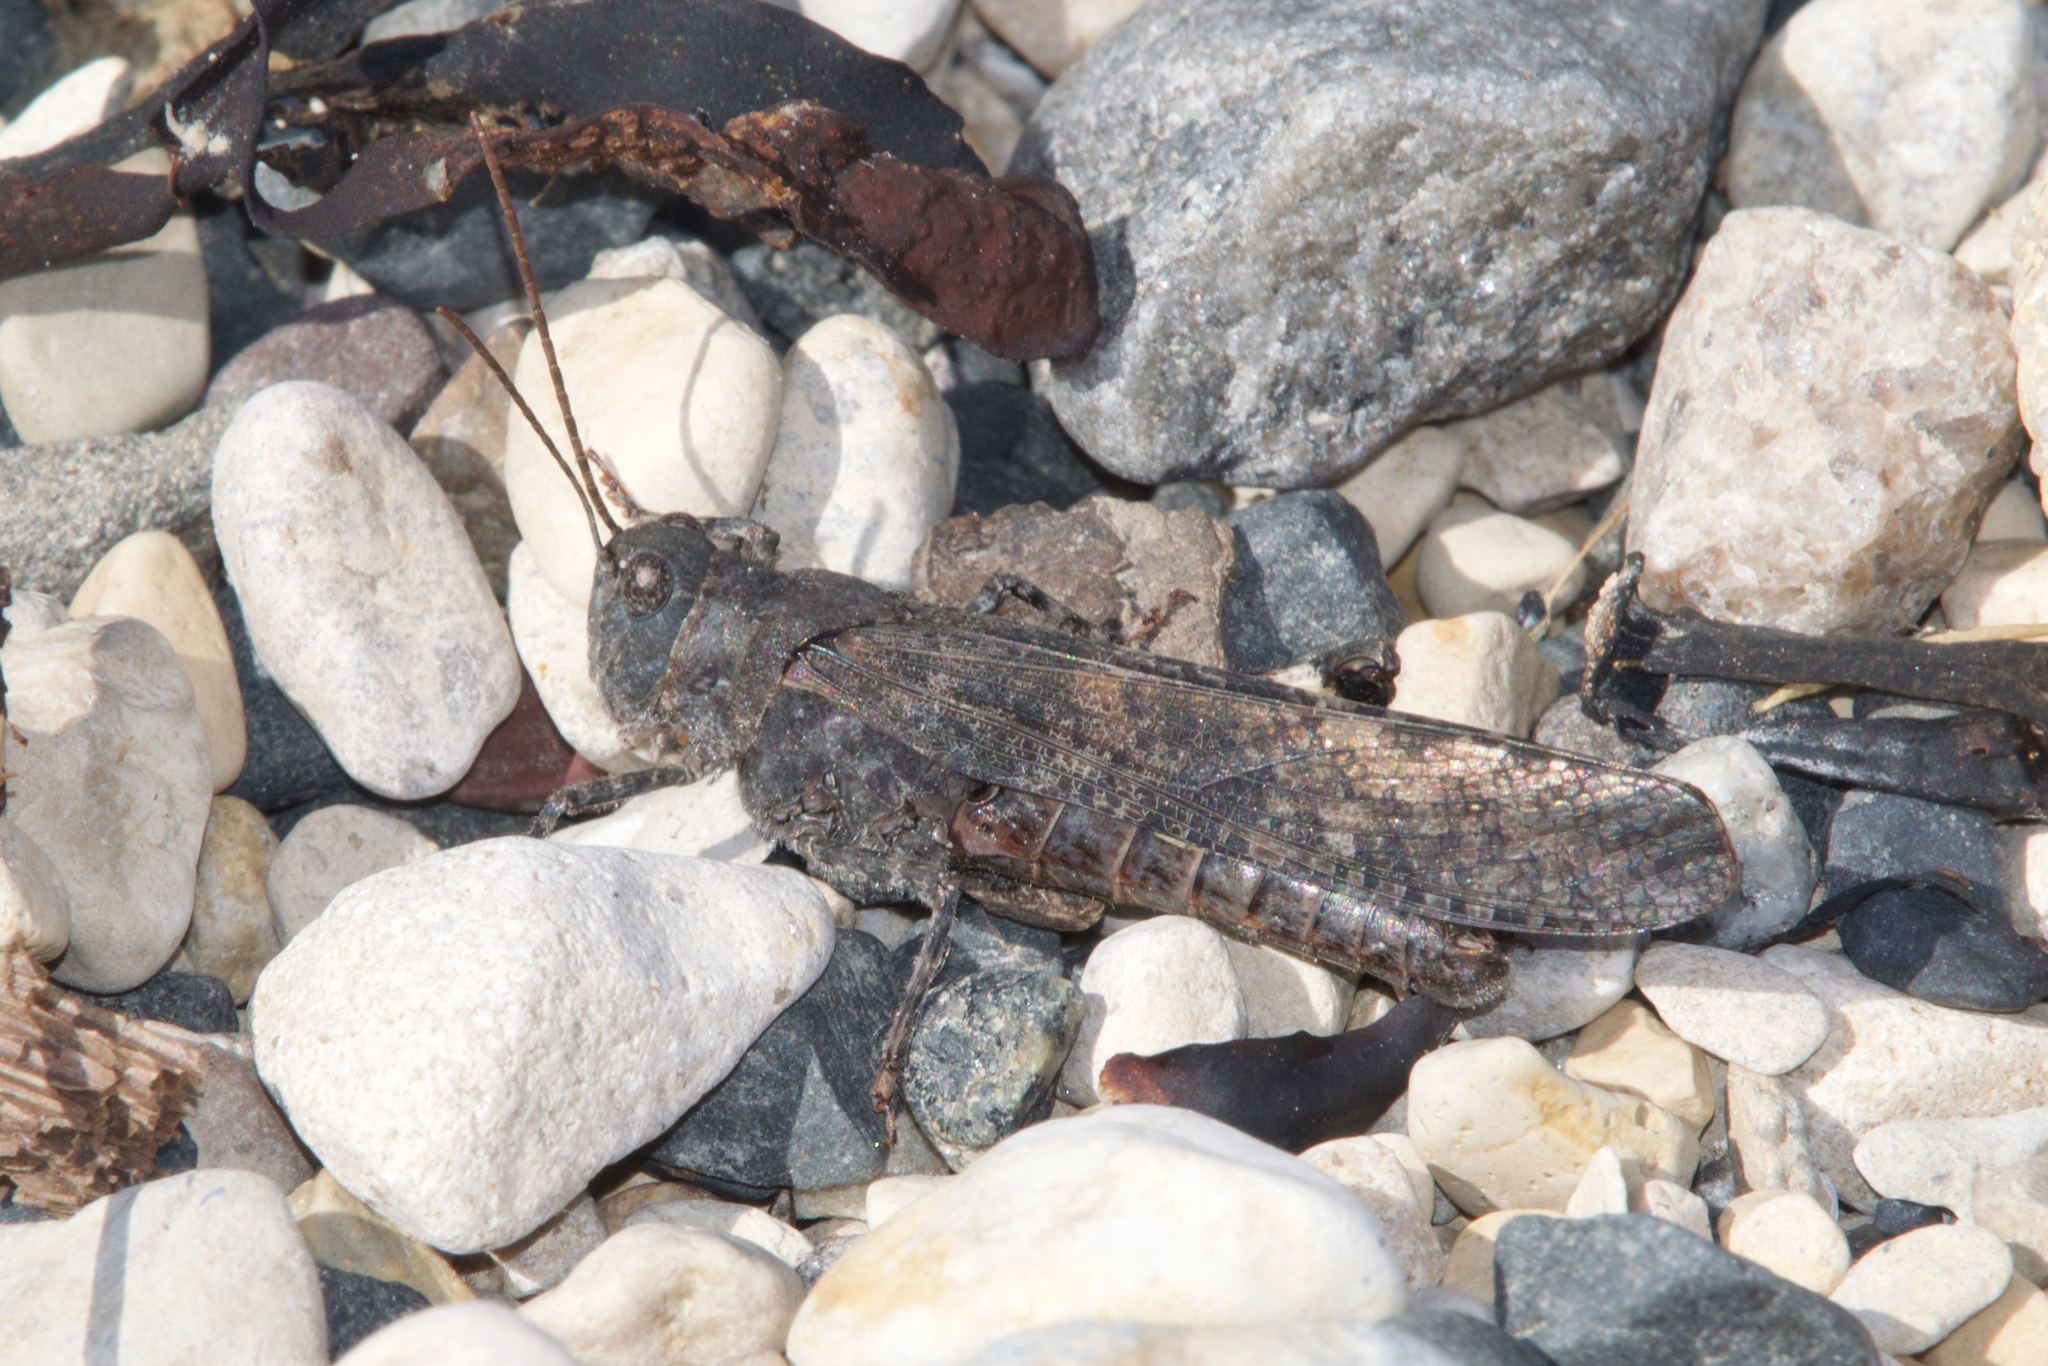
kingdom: Animalia
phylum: Arthropoda
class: Insecta
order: Orthoptera
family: Acrididae
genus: Trimerotropis
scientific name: Trimerotropis verruculata
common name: Crackling forest grasshopper
